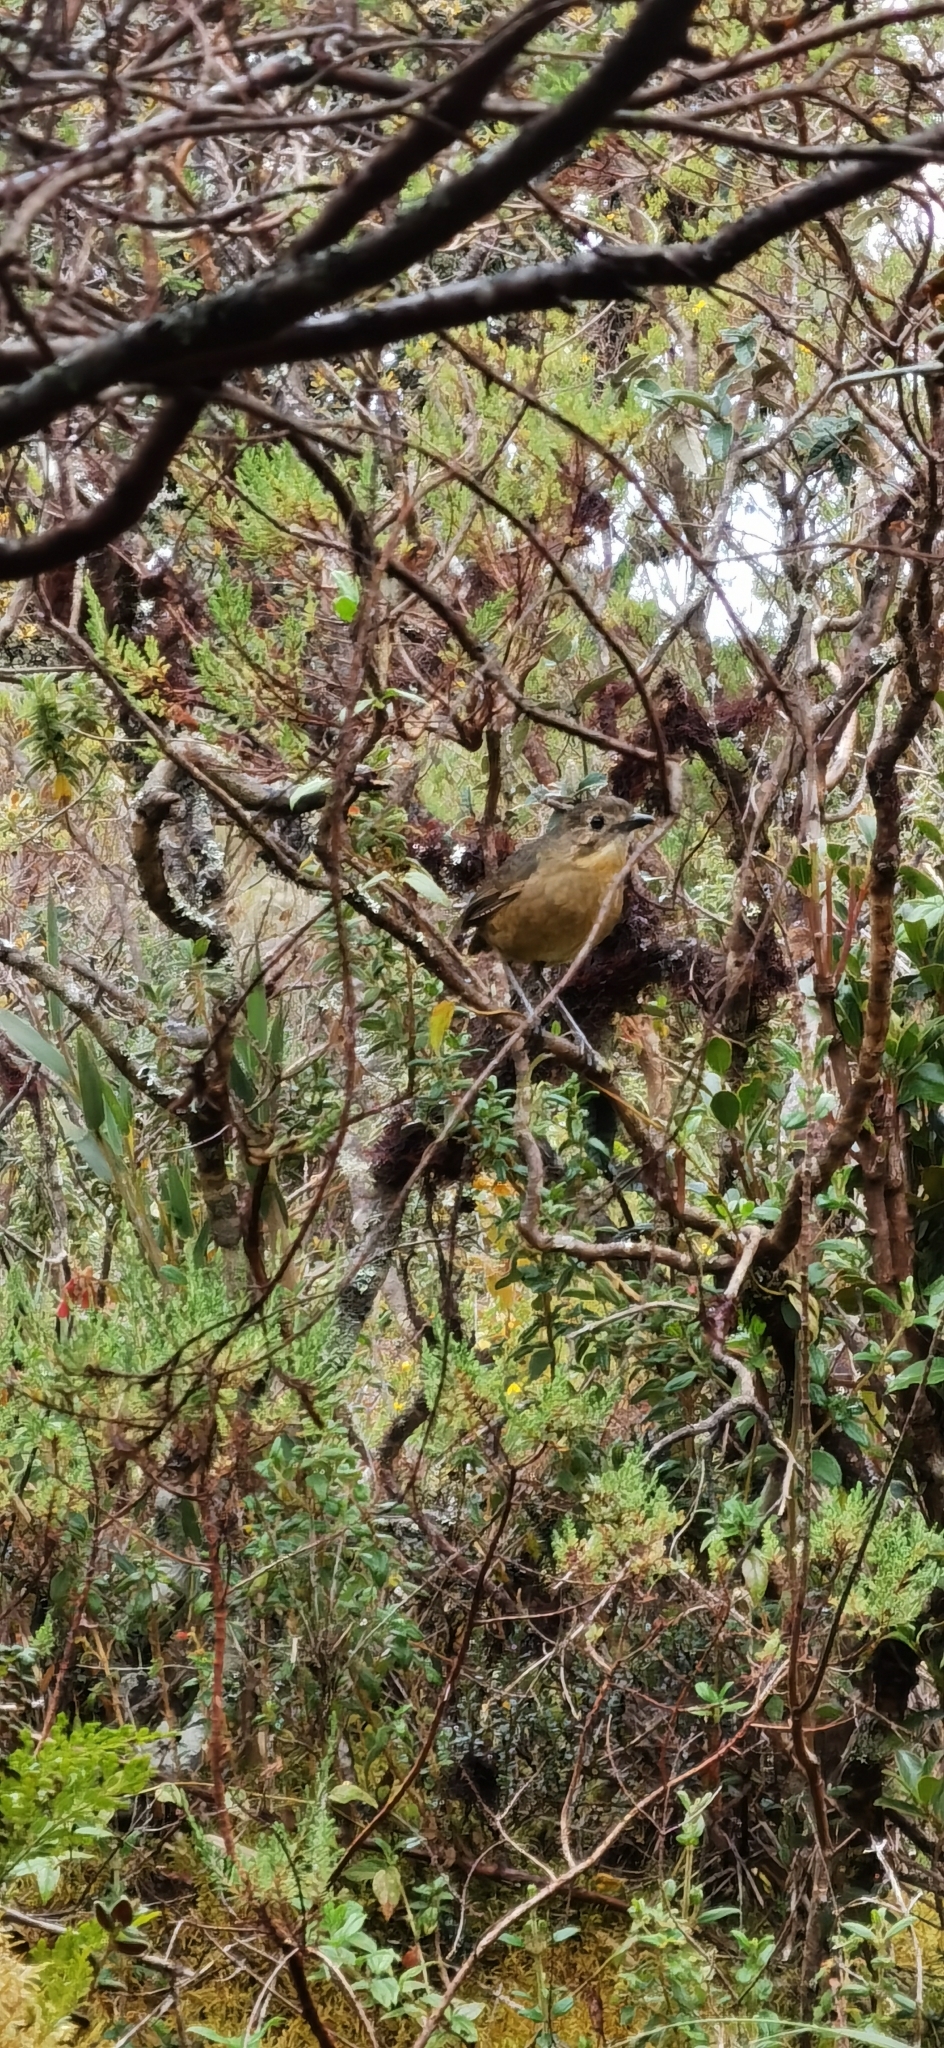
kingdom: Animalia
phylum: Chordata
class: Aves
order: Passeriformes
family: Grallariidae
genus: Grallaria
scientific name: Grallaria quitensis
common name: Tawny antpitta
